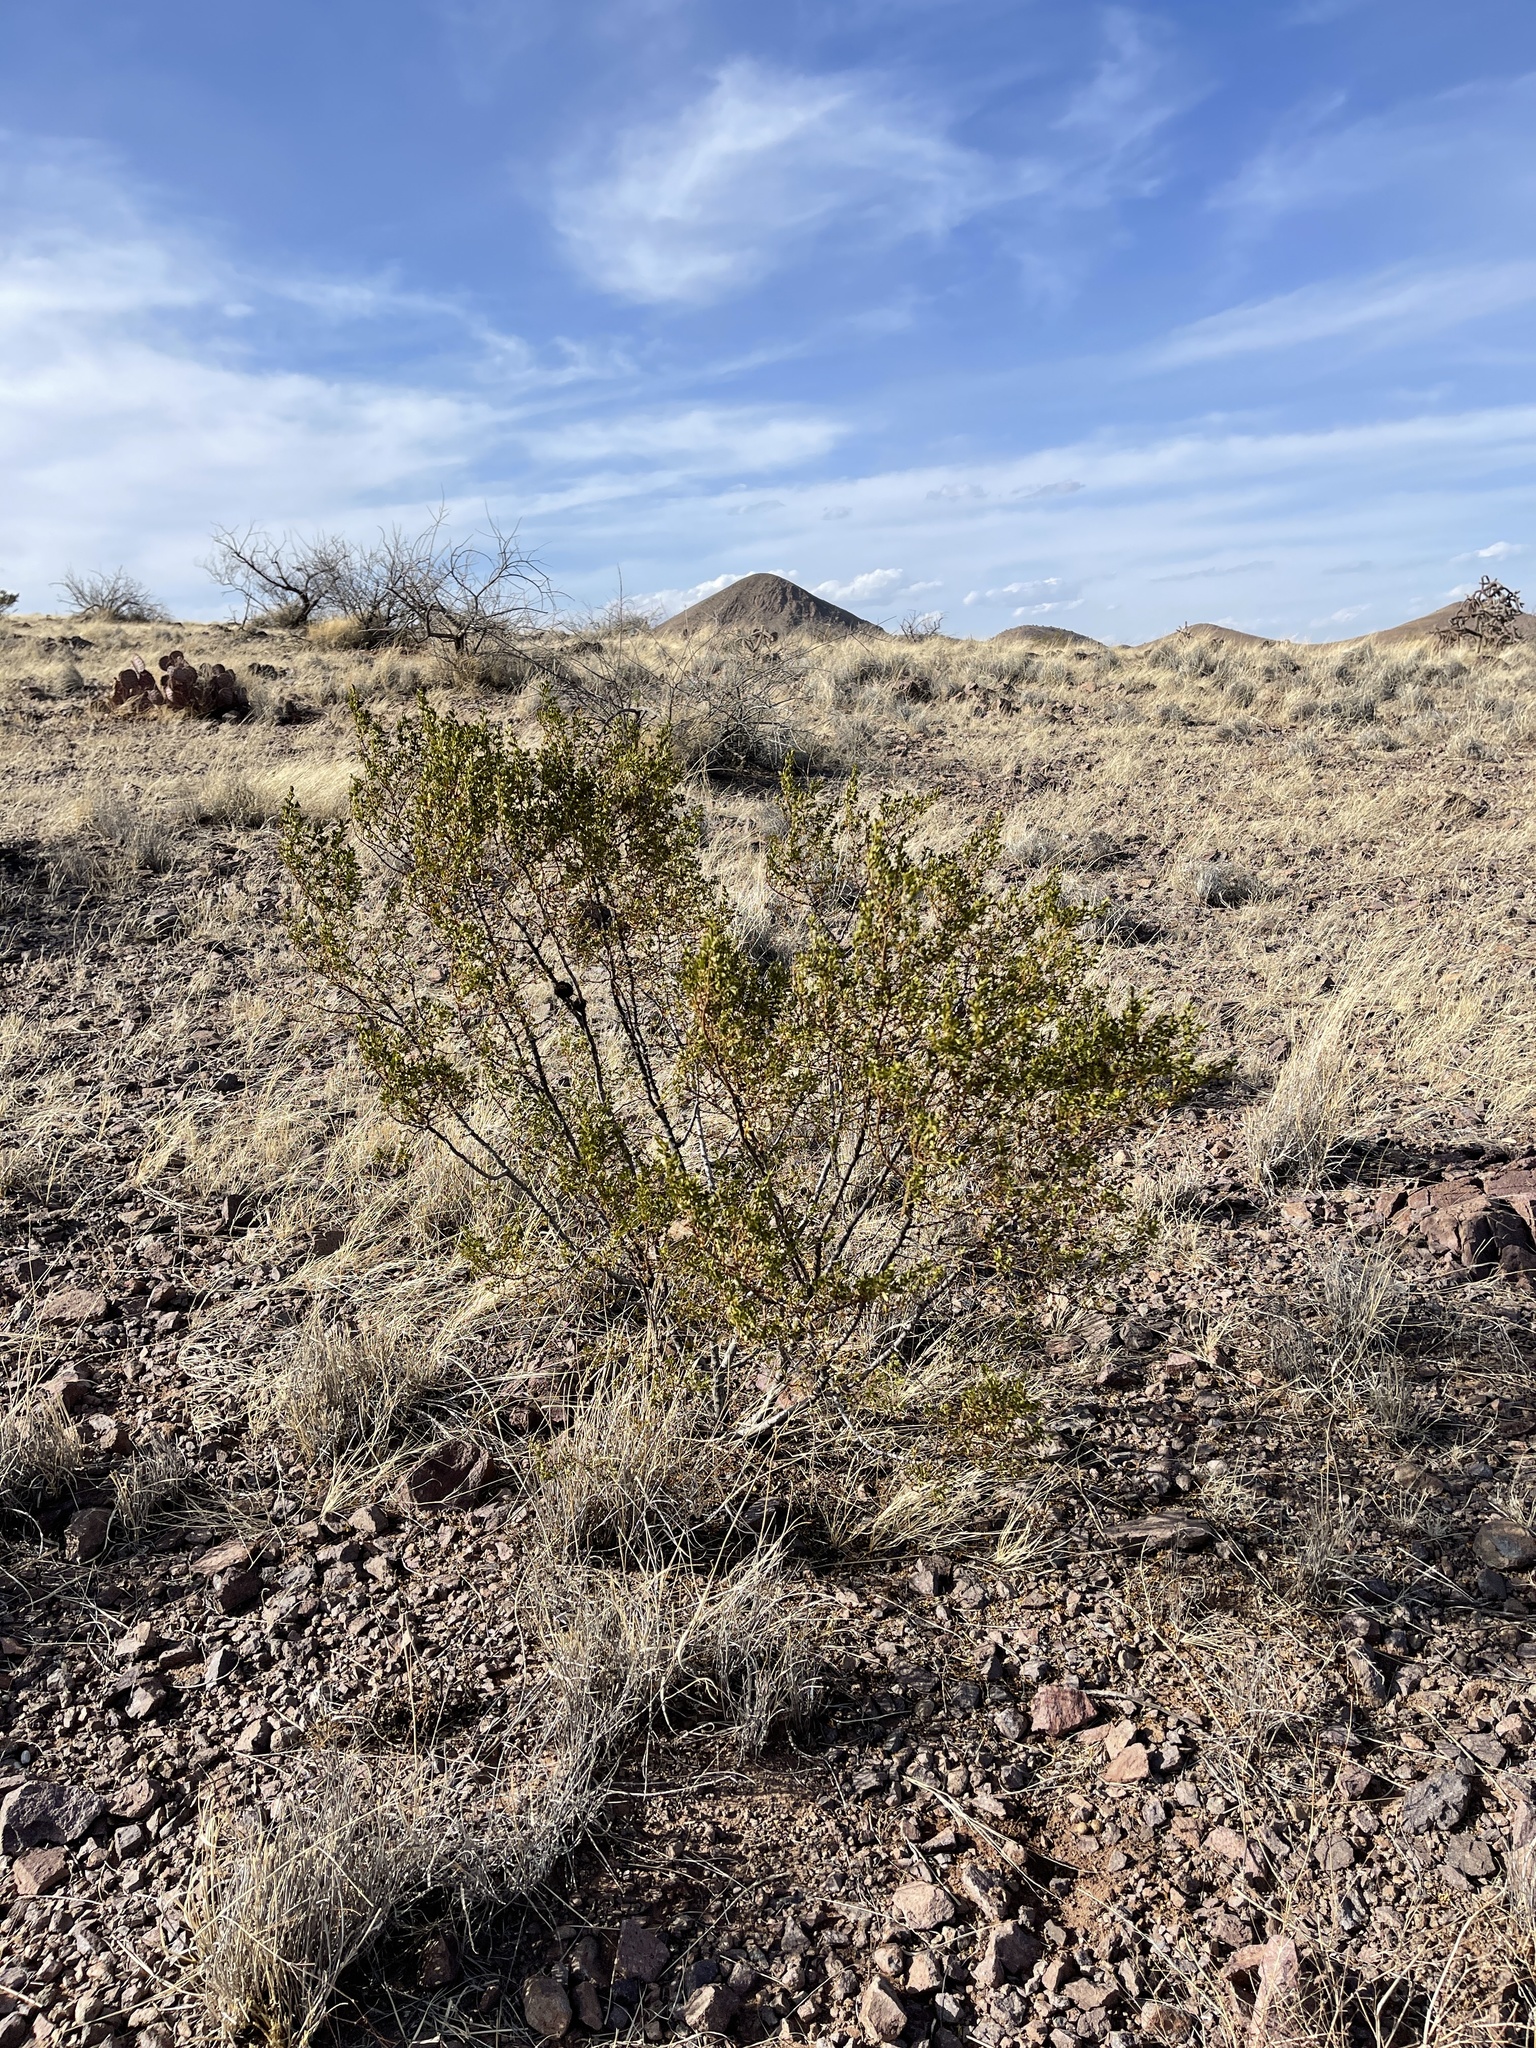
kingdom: Plantae
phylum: Tracheophyta
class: Magnoliopsida
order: Zygophyllales
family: Zygophyllaceae
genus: Larrea
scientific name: Larrea tridentata
